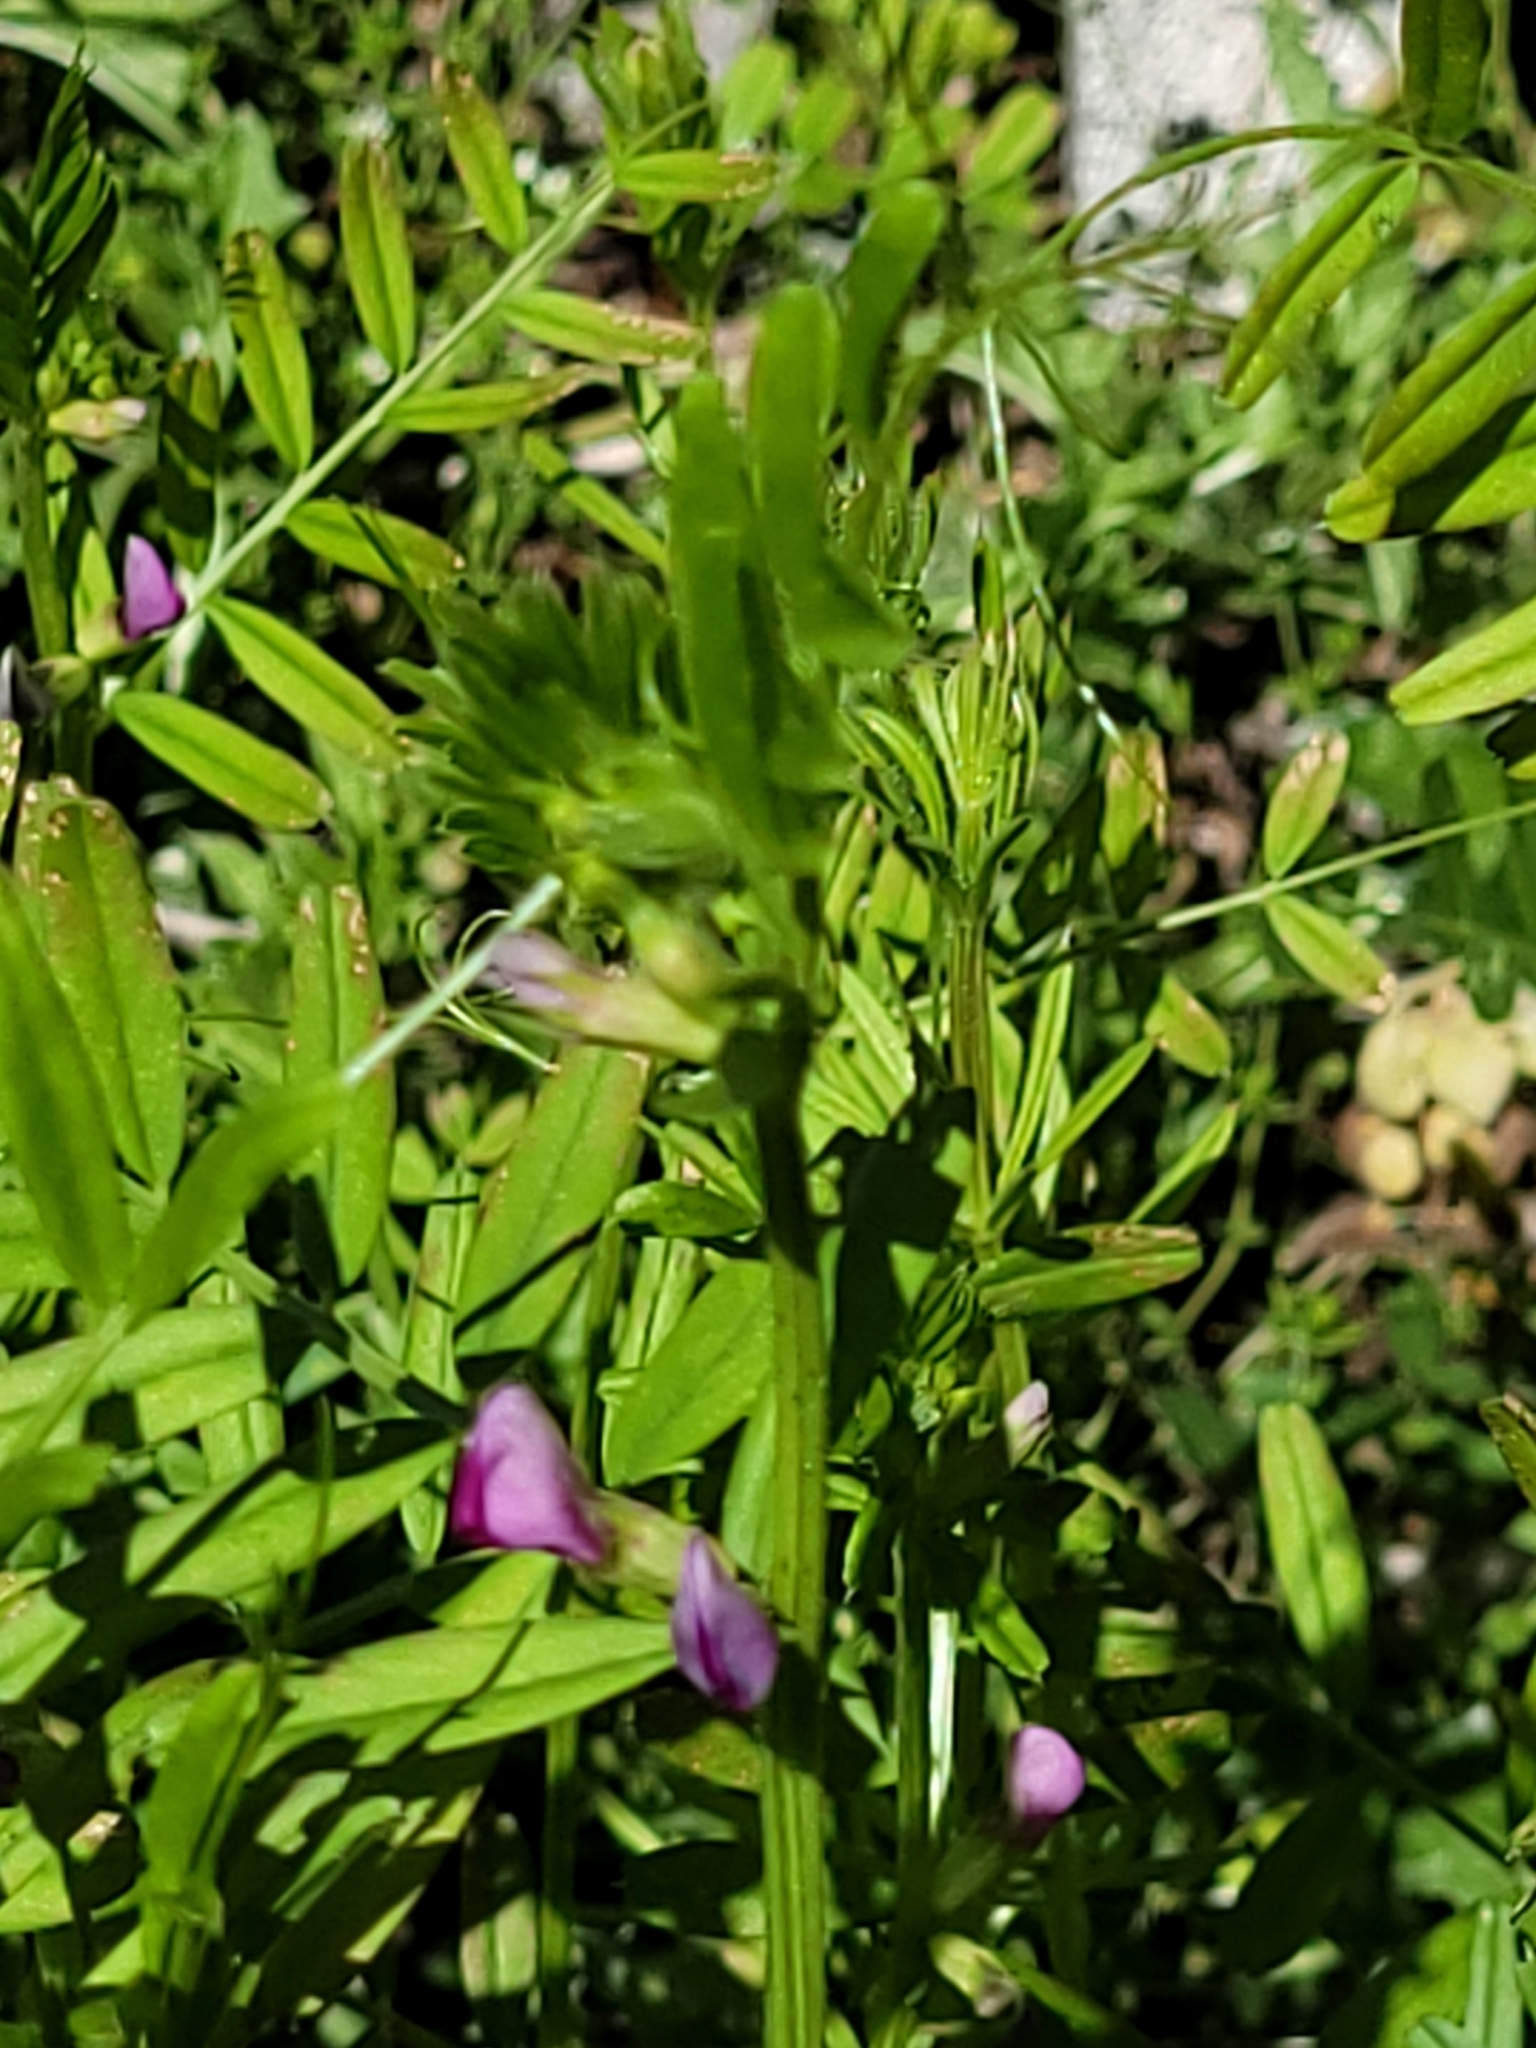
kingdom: Plantae
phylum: Tracheophyta
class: Magnoliopsida
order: Fabales
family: Fabaceae
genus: Vicia
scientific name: Vicia sativa
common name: Garden vetch
